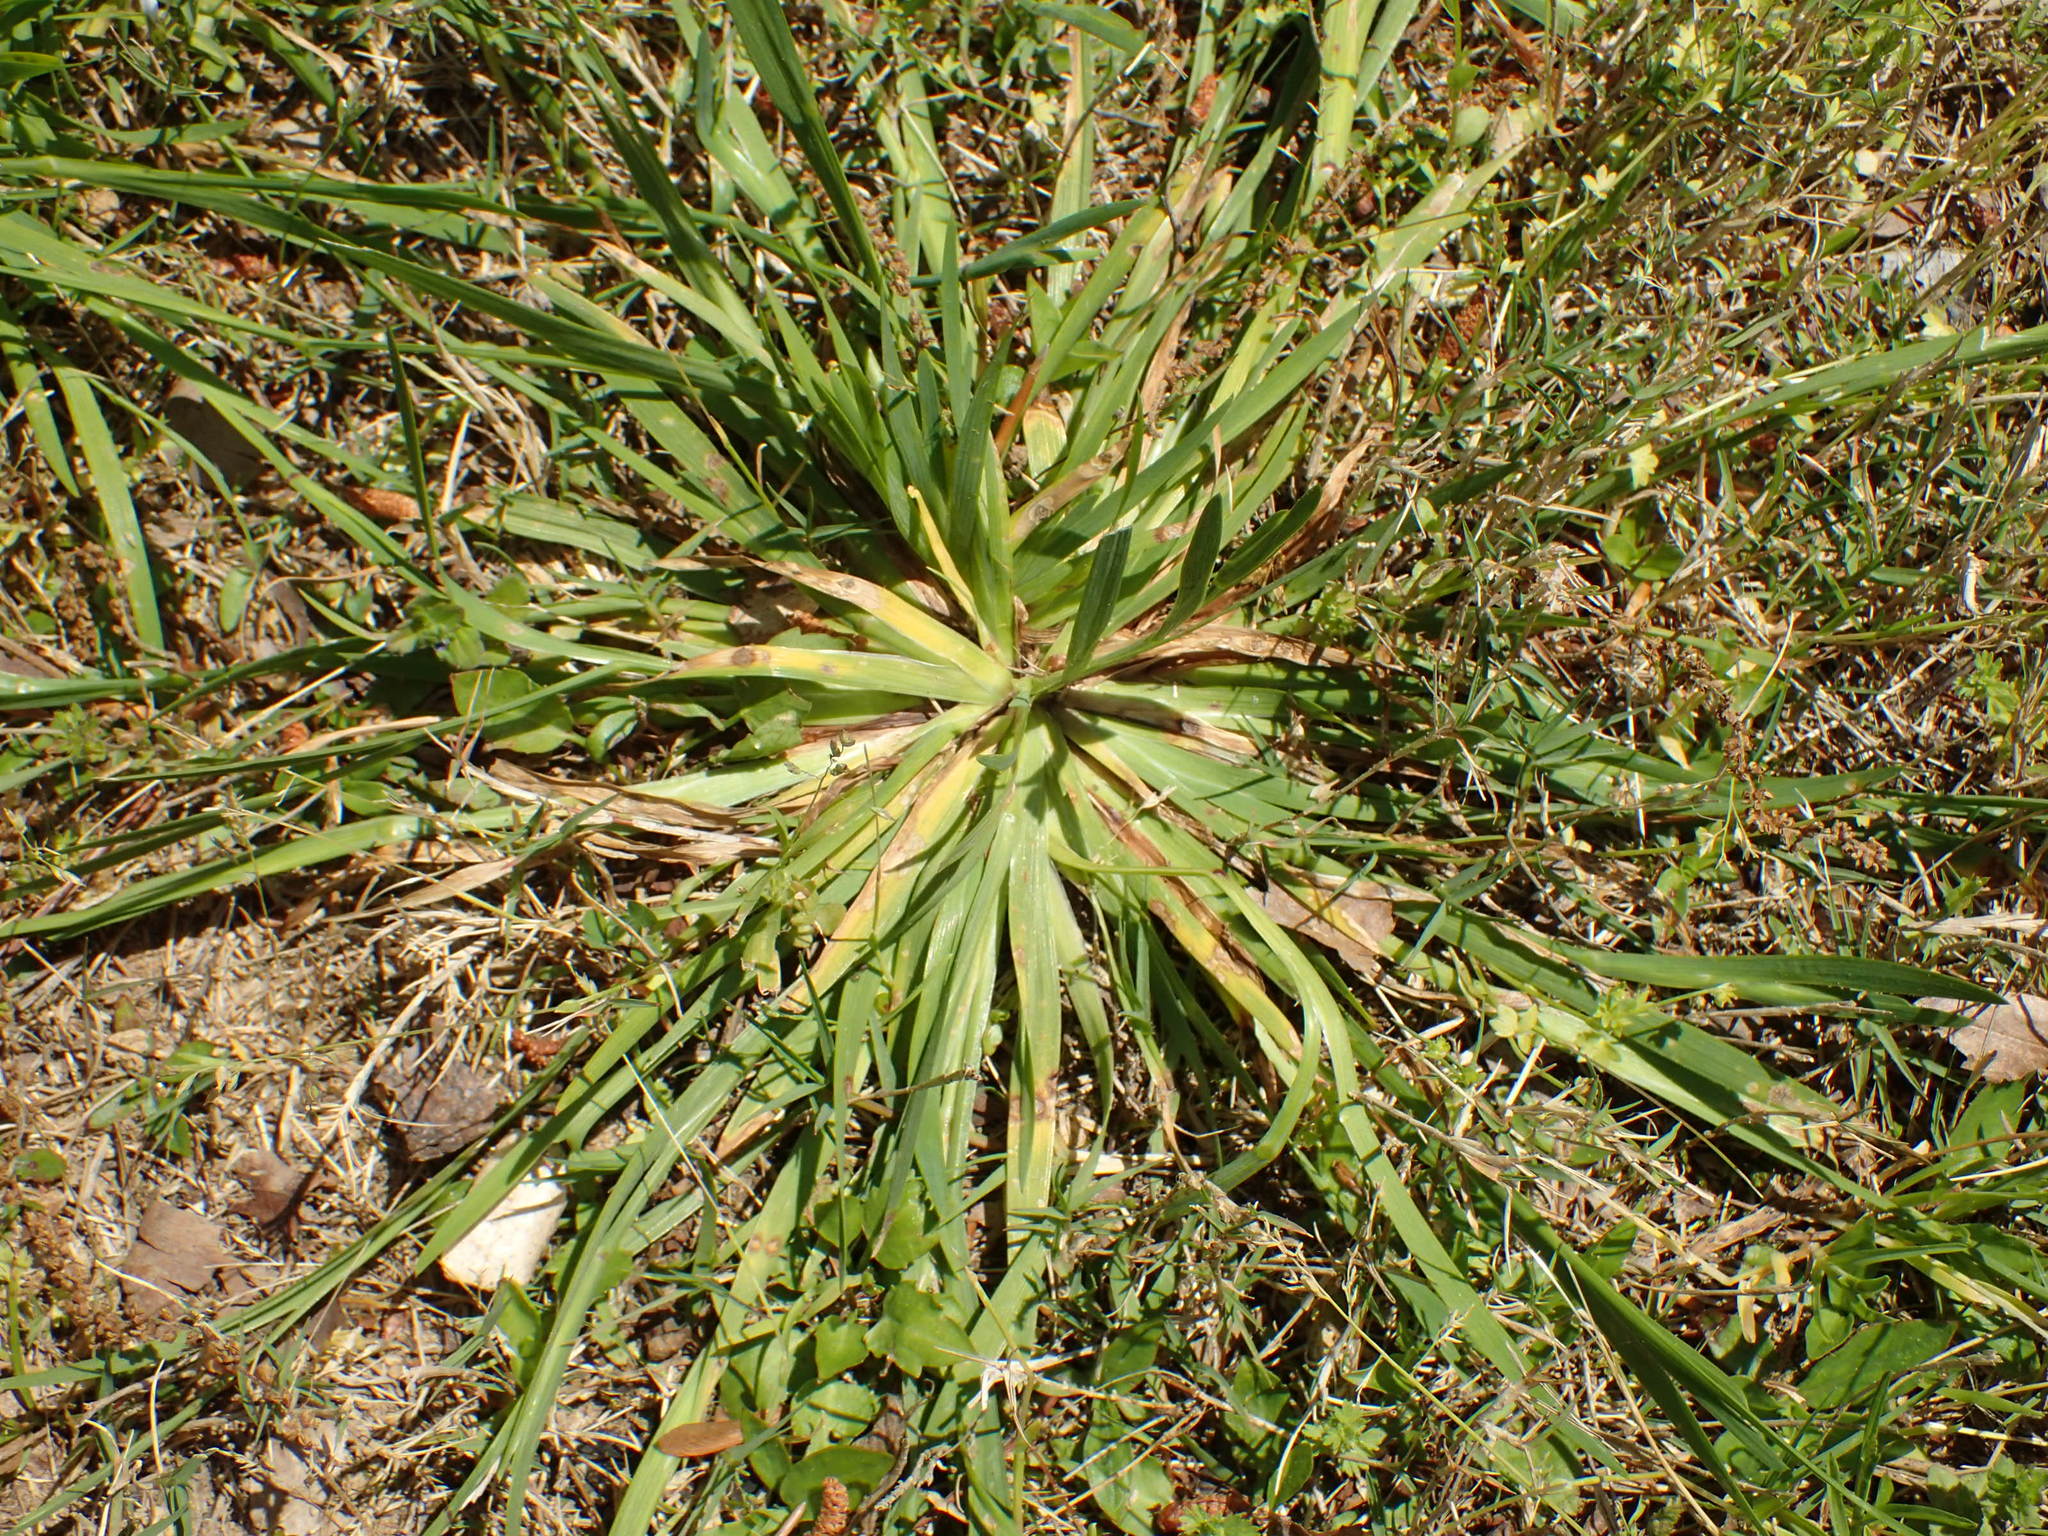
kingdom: Plantae
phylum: Tracheophyta
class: Liliopsida
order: Asparagales
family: Iridaceae
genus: Sisyrinchium
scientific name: Sisyrinchium micranthum
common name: Bermuda pigroot
